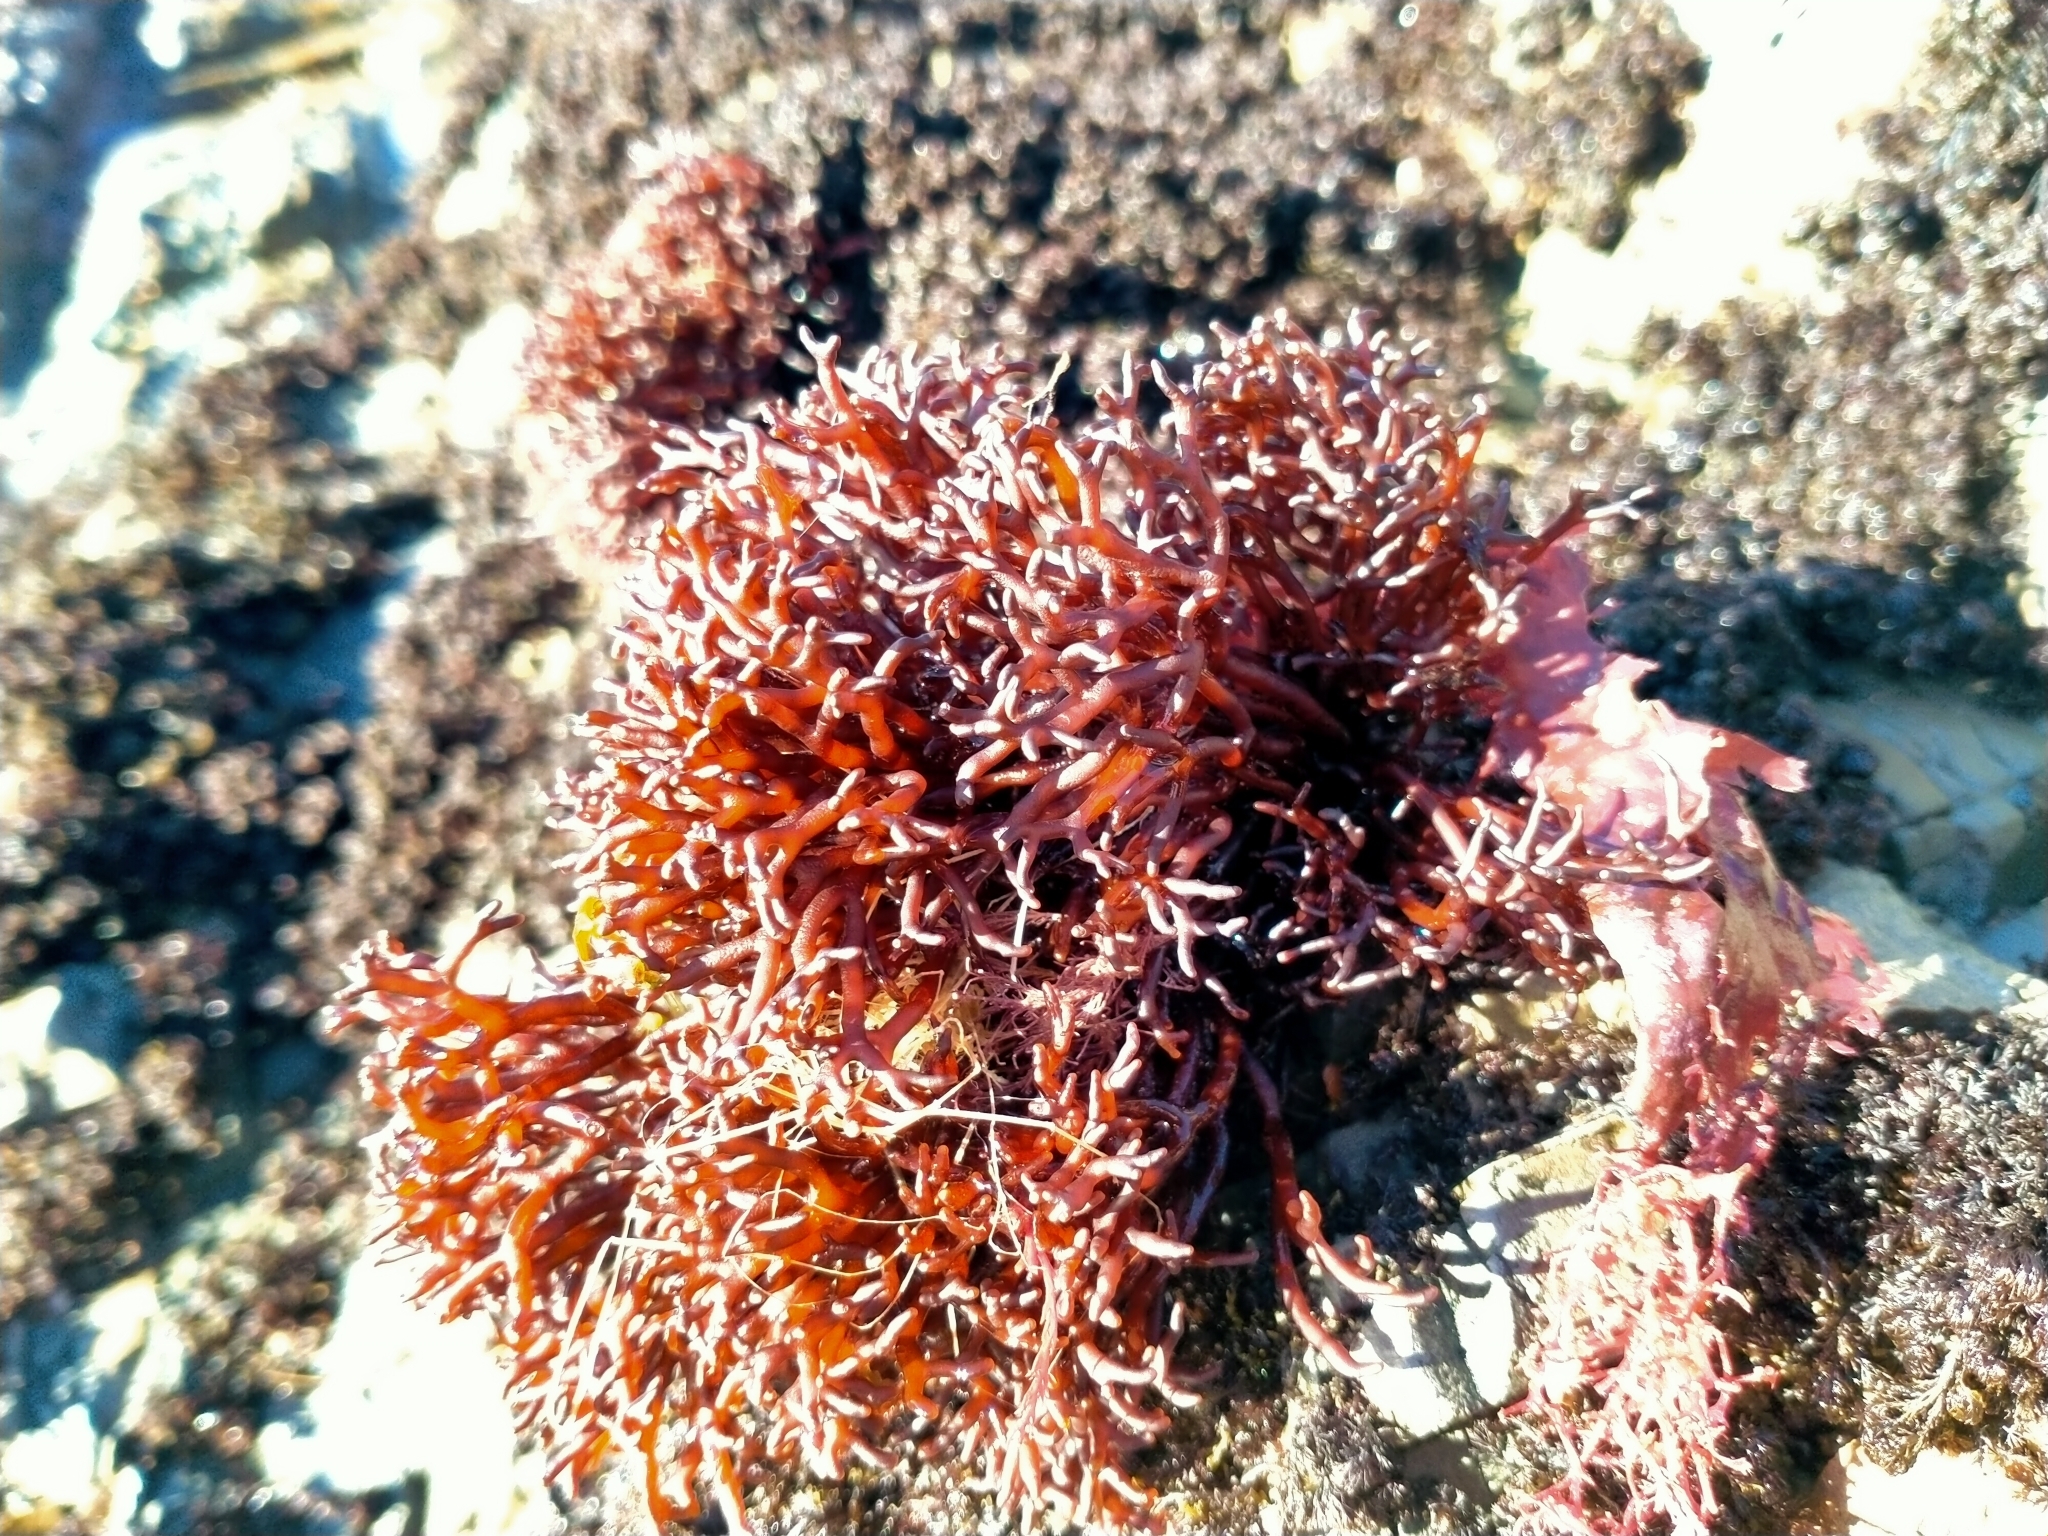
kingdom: Plantae
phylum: Rhodophyta
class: Florideophyceae
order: Hildenbrandiales
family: Hildenbrandiaceae
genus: Apophlaea
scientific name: Apophlaea lyallii
